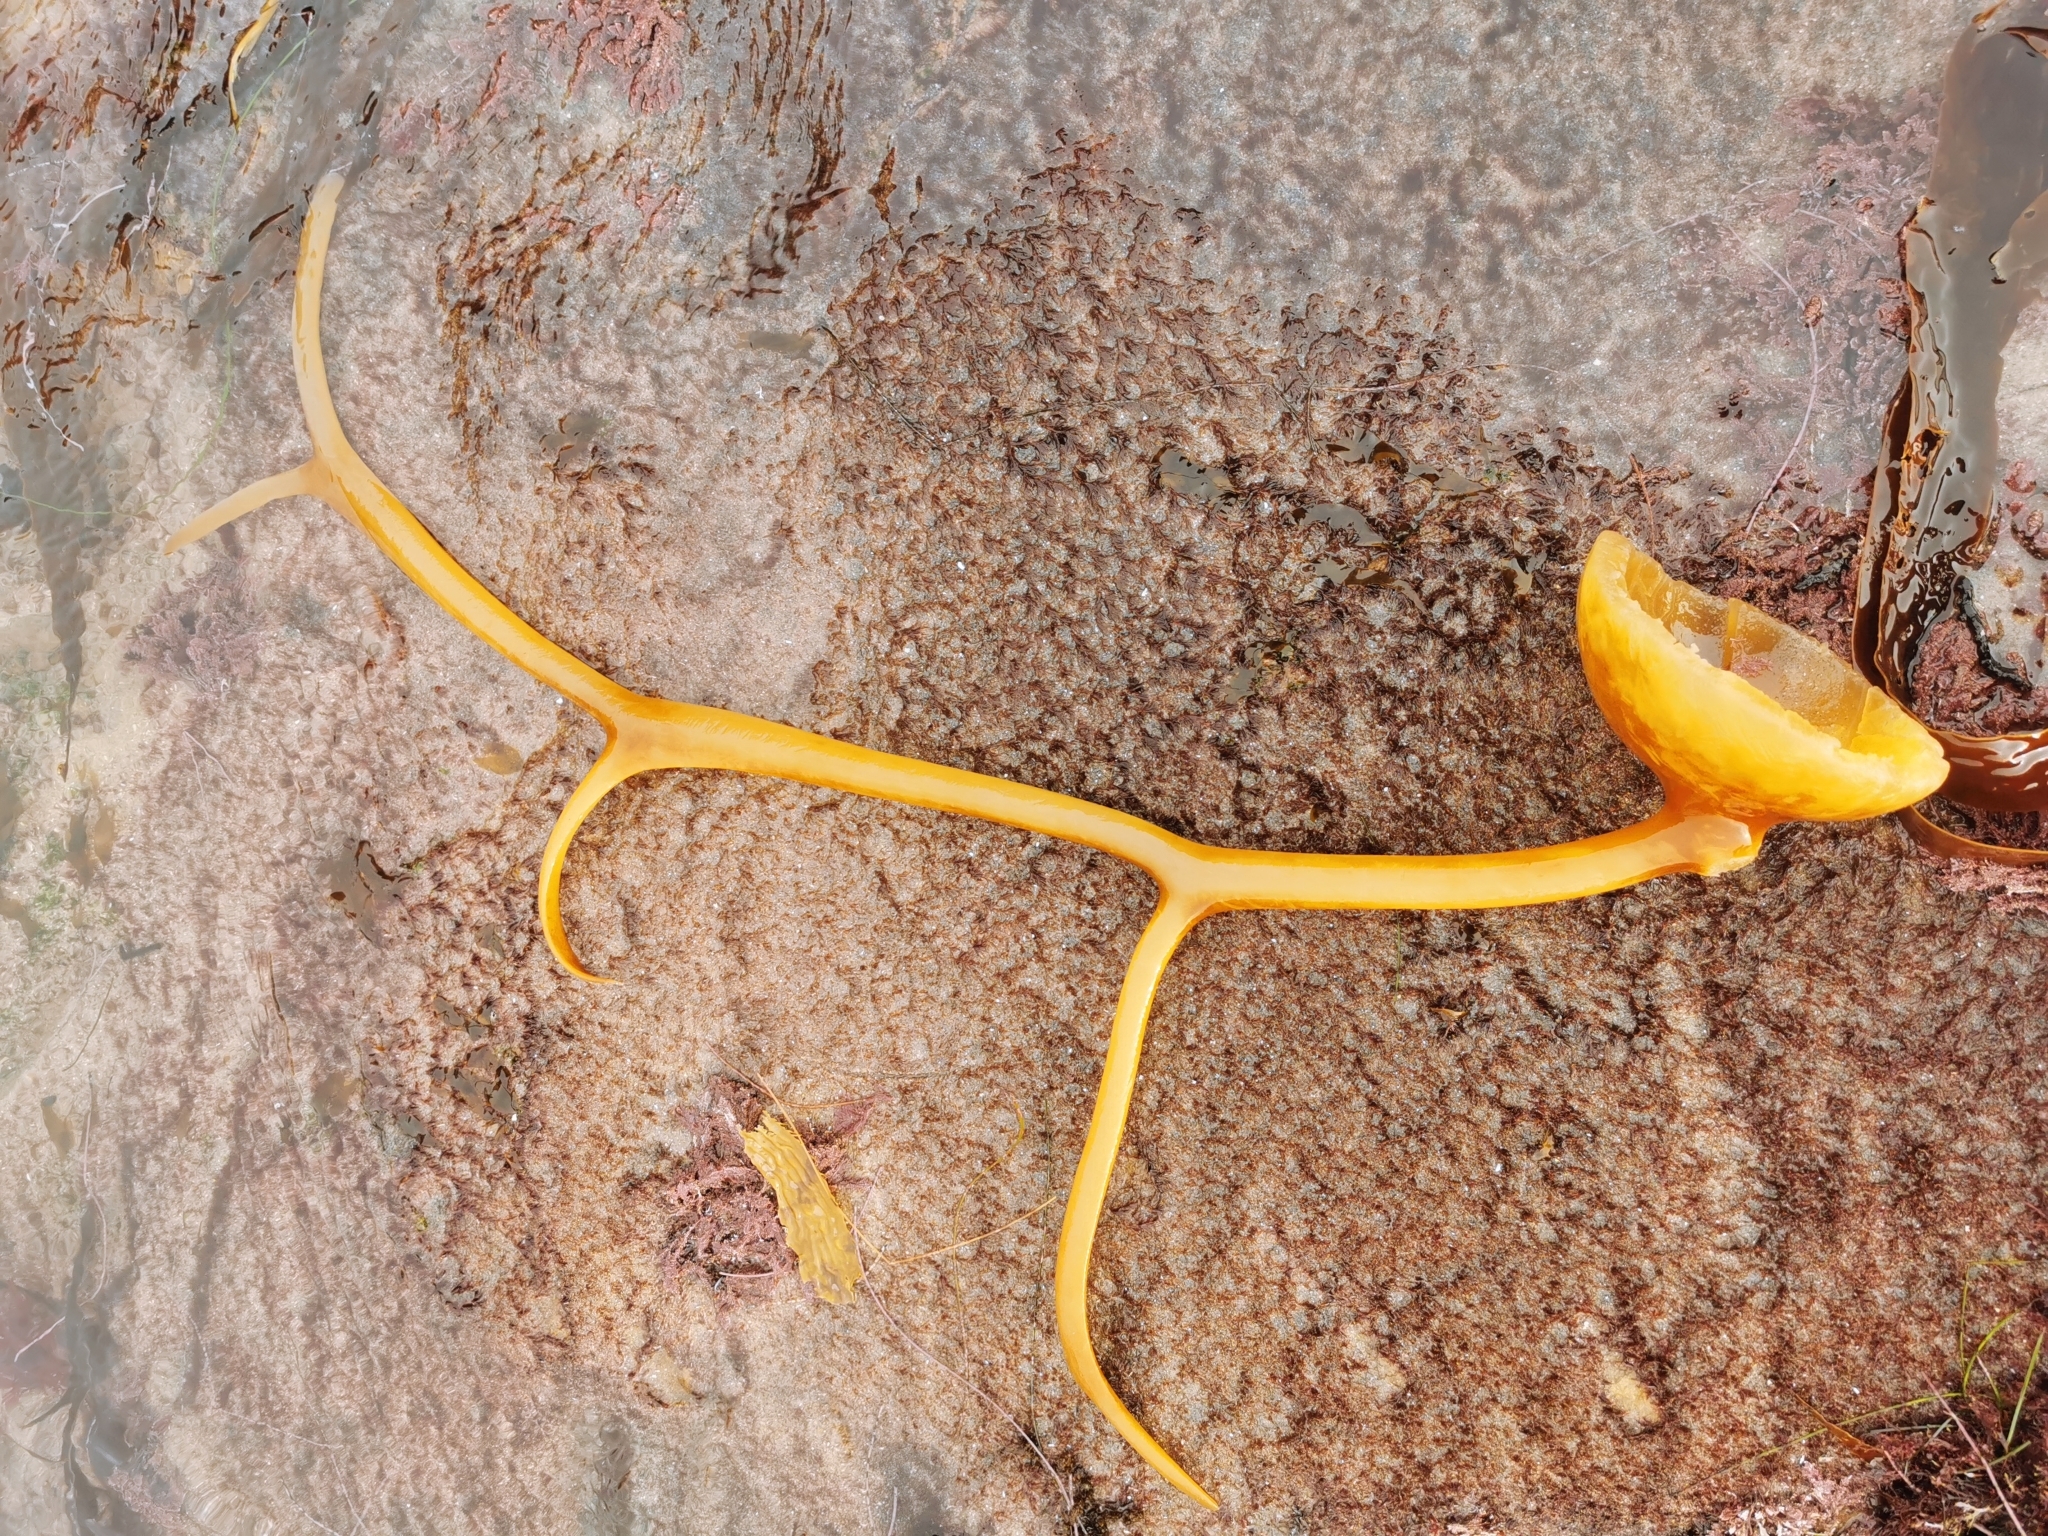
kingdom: Chromista
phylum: Ochrophyta
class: Phaeophyceae
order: Laminariales
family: Laminariaceae
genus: Pelagophycus
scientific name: Pelagophycus porra
